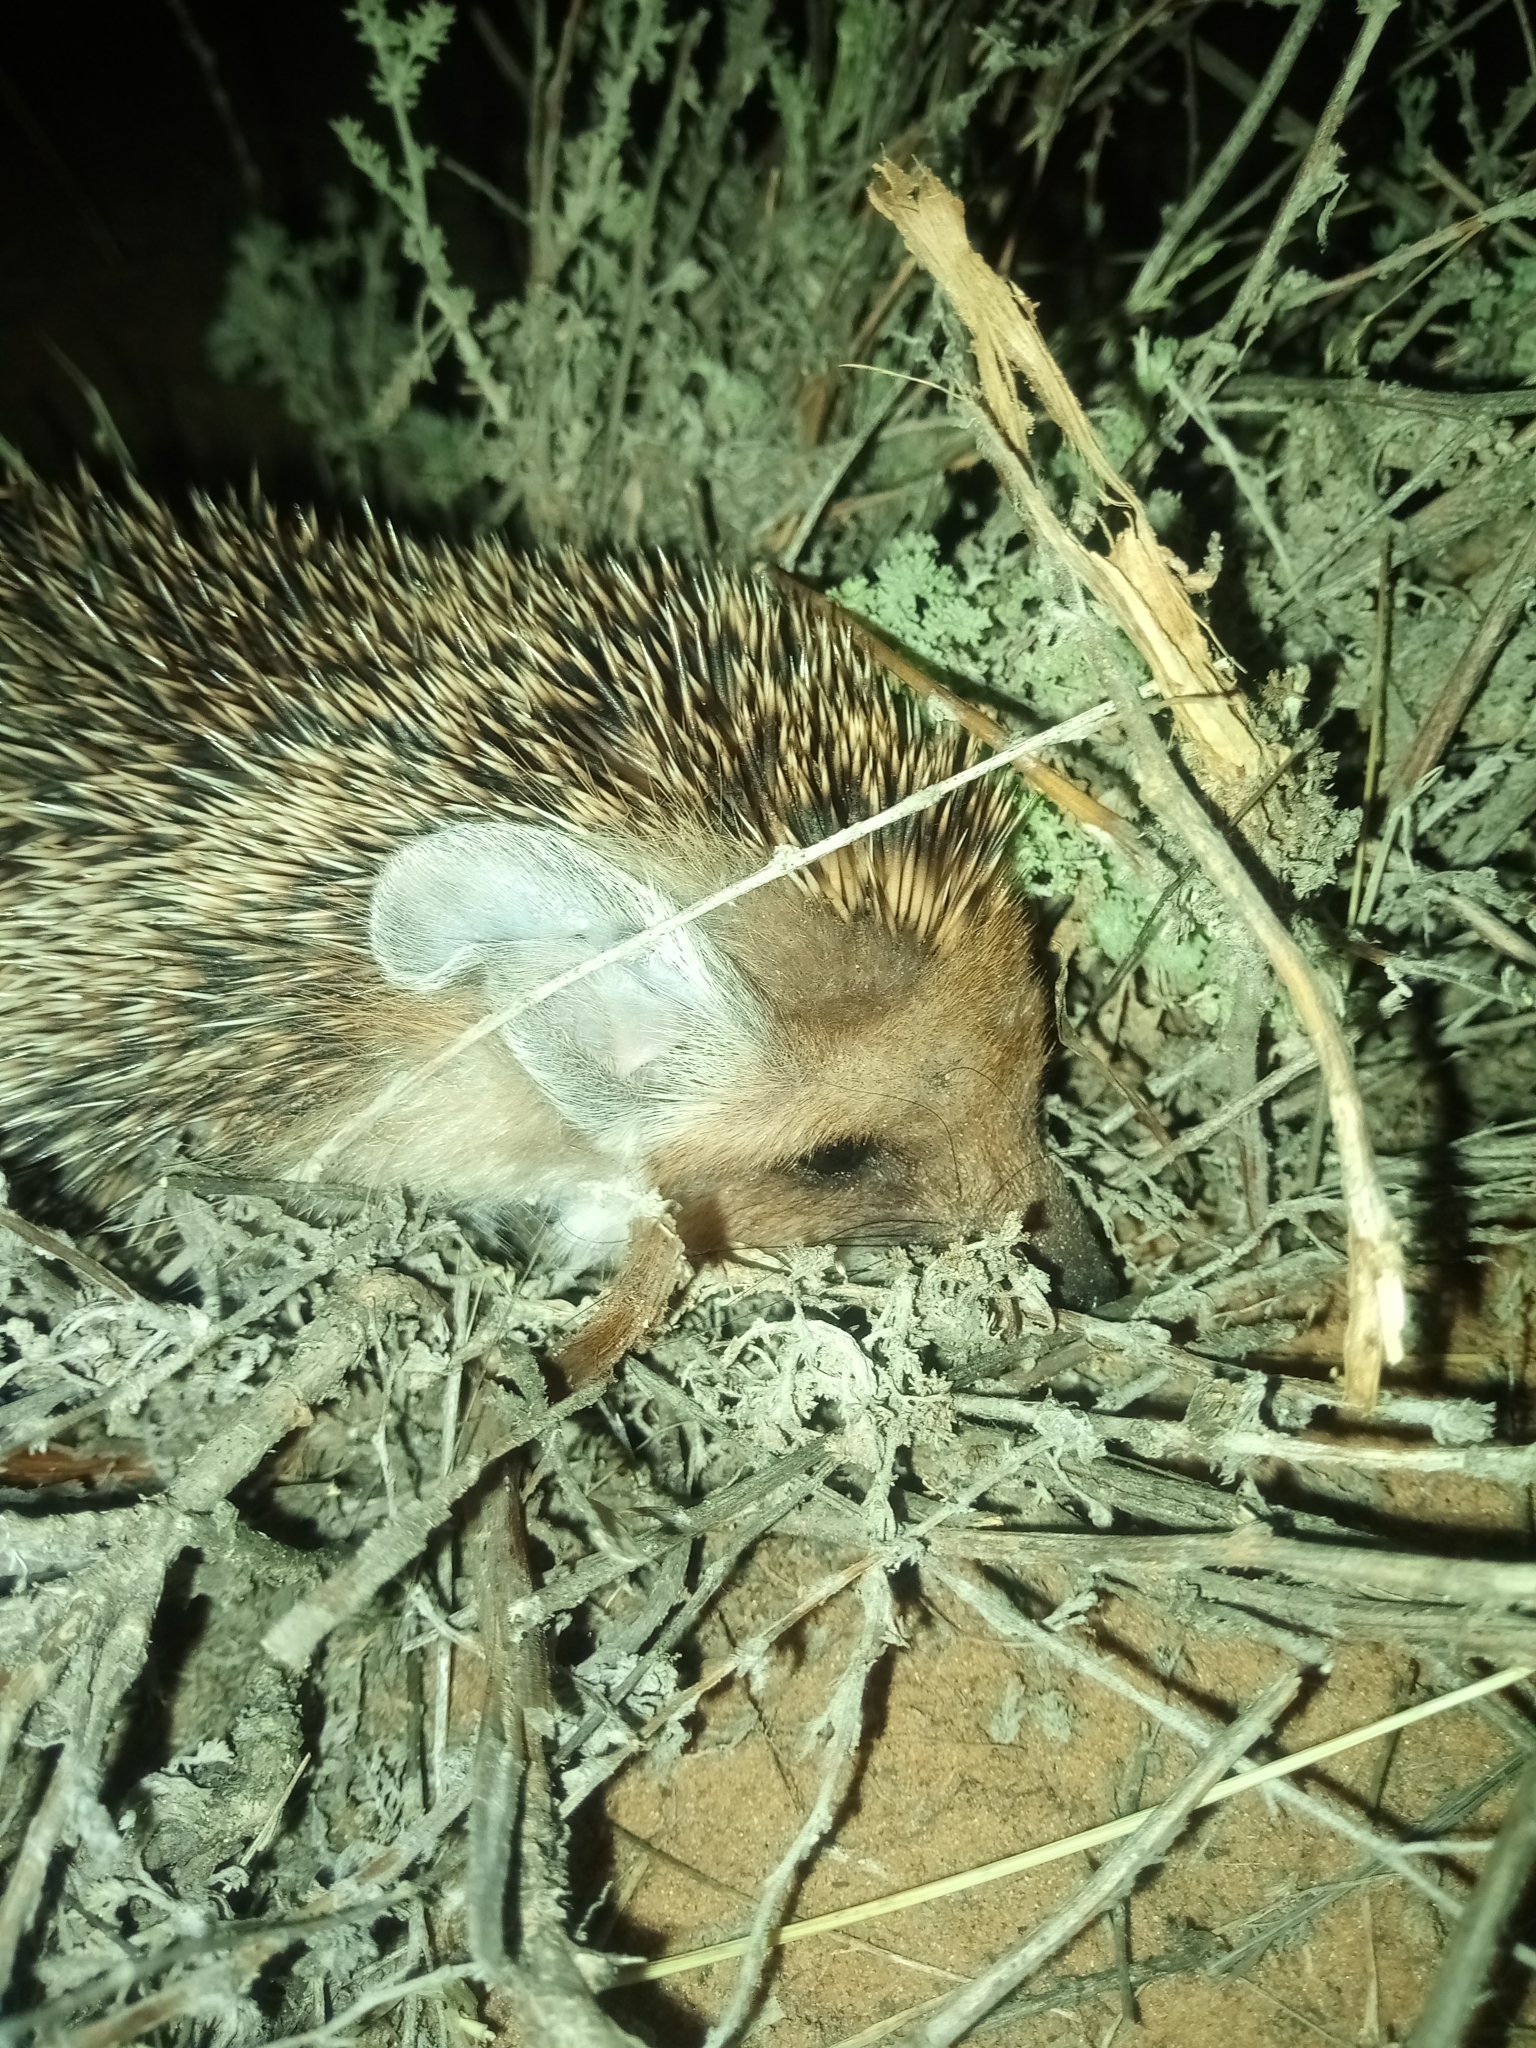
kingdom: Animalia
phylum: Chordata
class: Mammalia
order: Erinaceomorpha
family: Erinaceidae
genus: Hemiechinus
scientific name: Hemiechinus auritus
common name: Long-eared hedgehog
